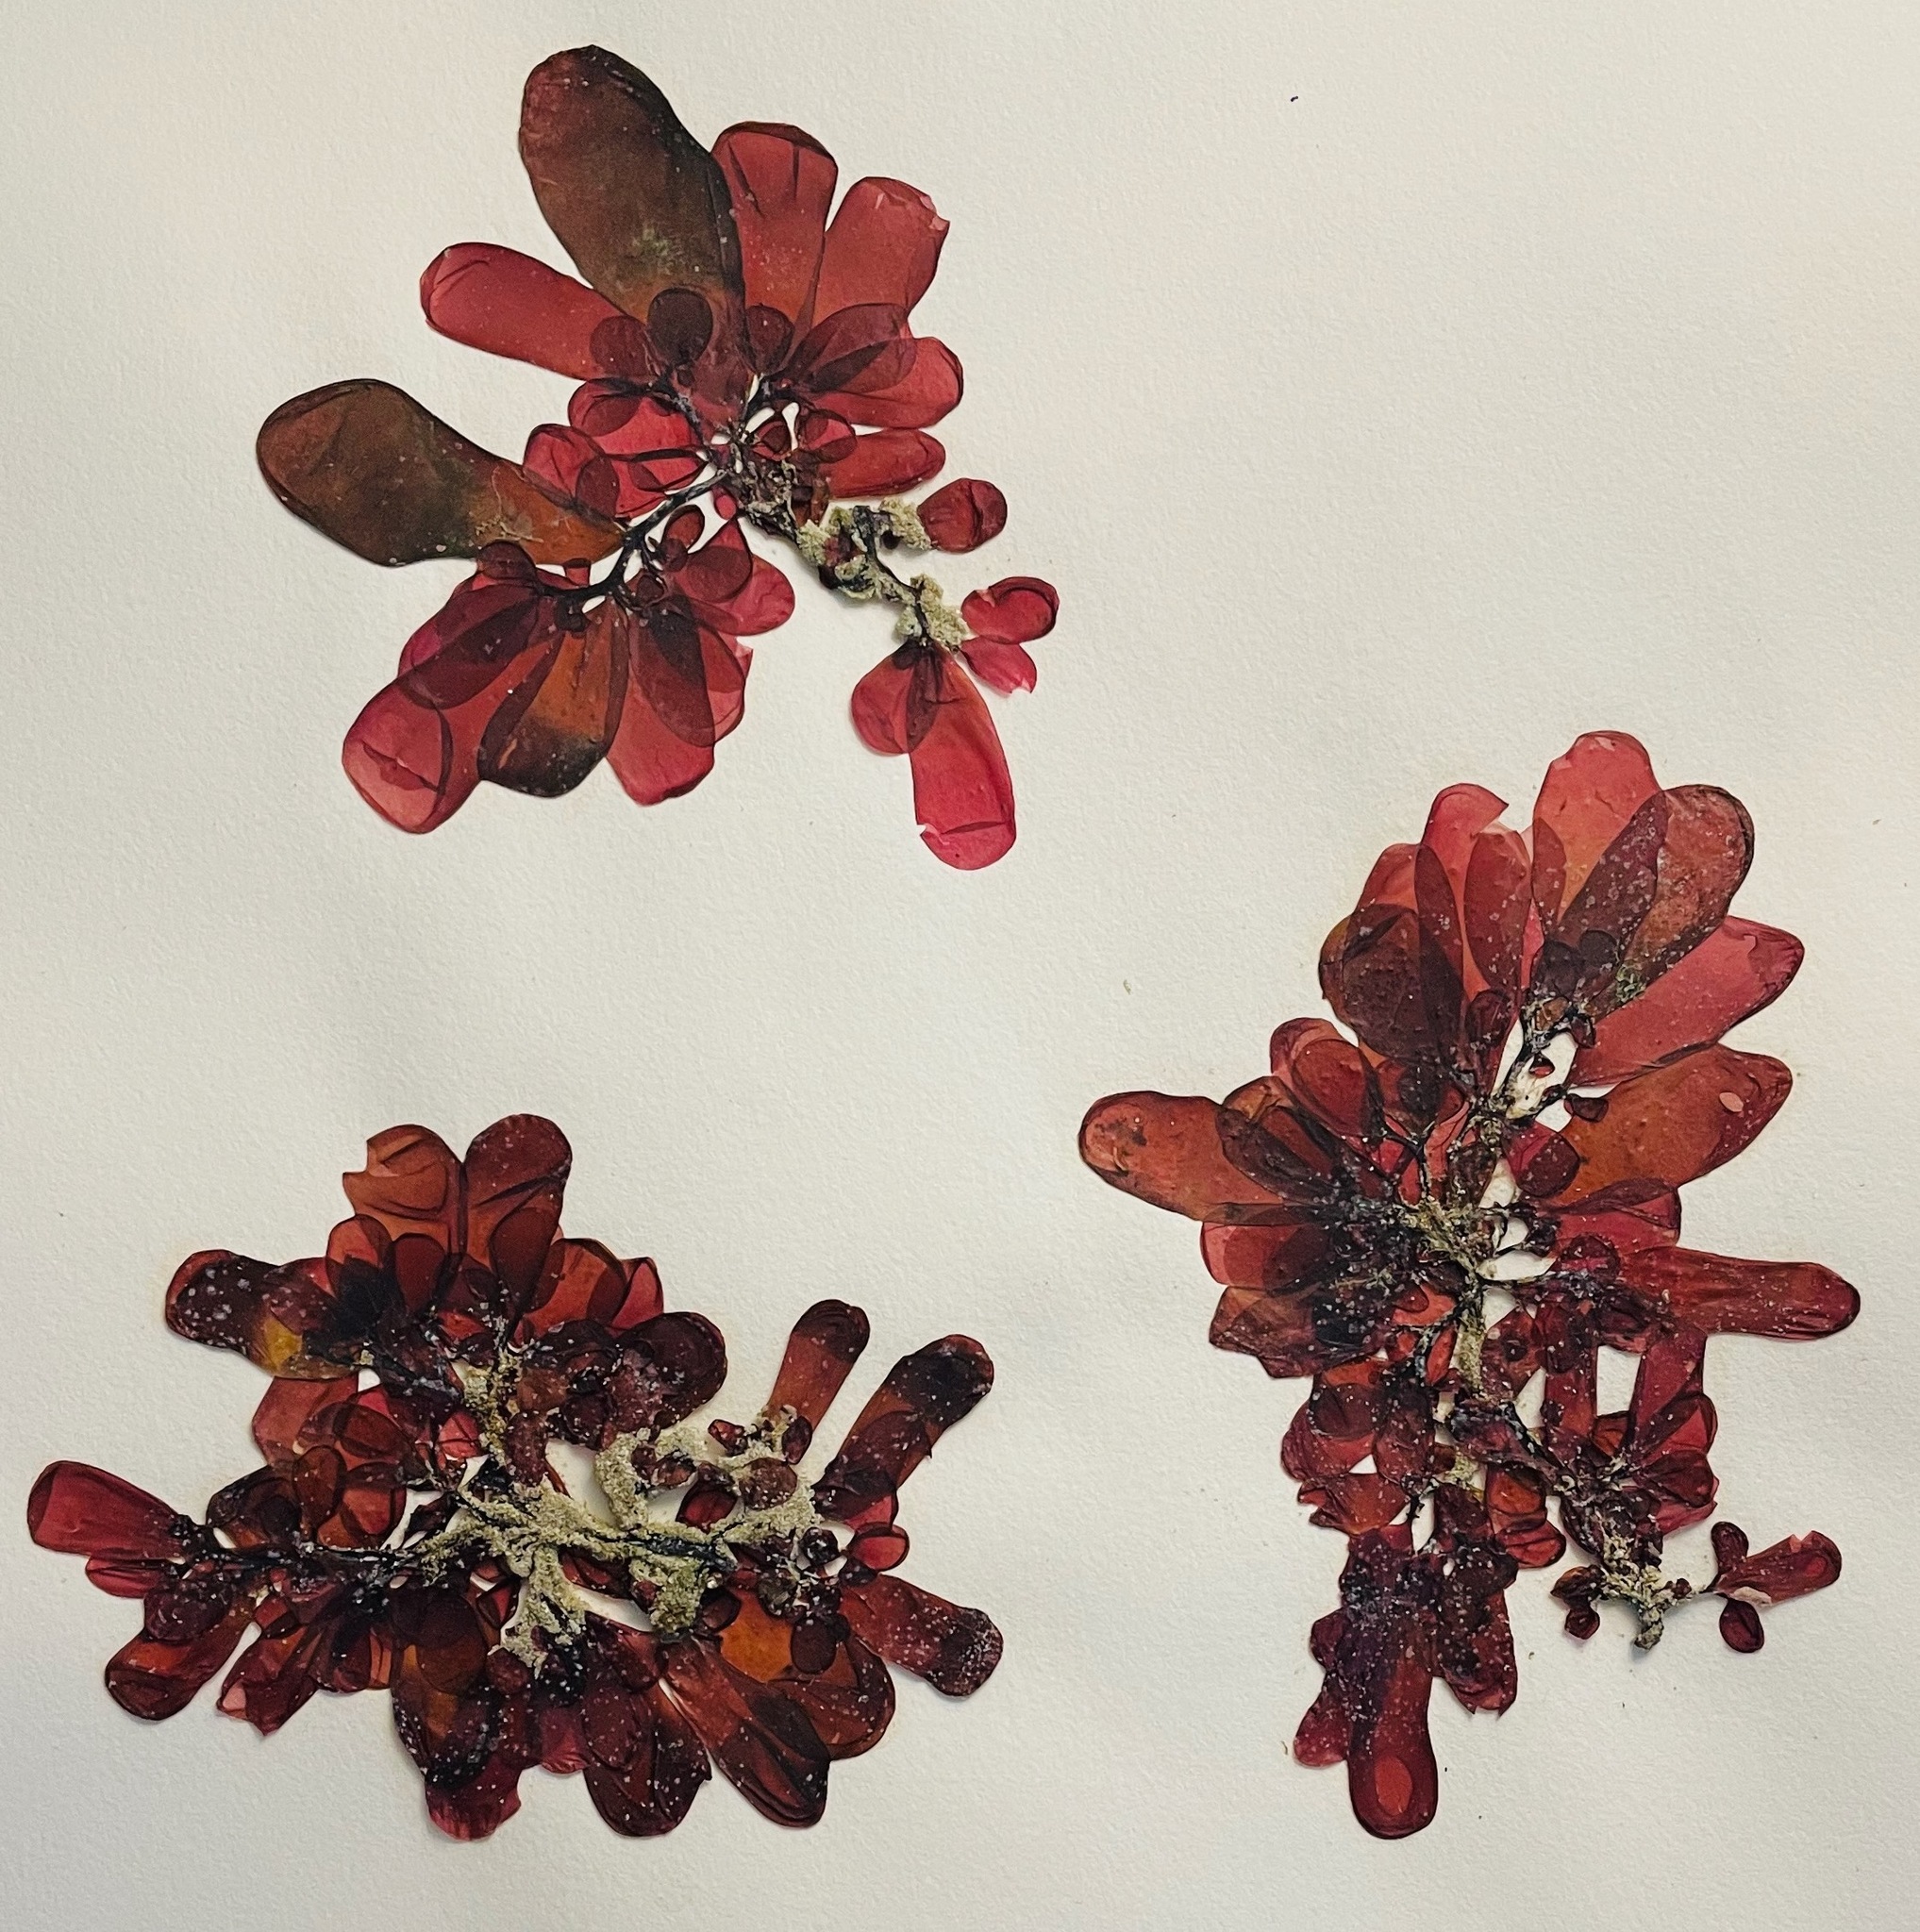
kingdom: Plantae
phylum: Rhodophyta
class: Florideophyceae
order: Rhodymeniales
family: Rhodymeniaceae
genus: Botryocladia
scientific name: Botryocladia pseudodichotoma
